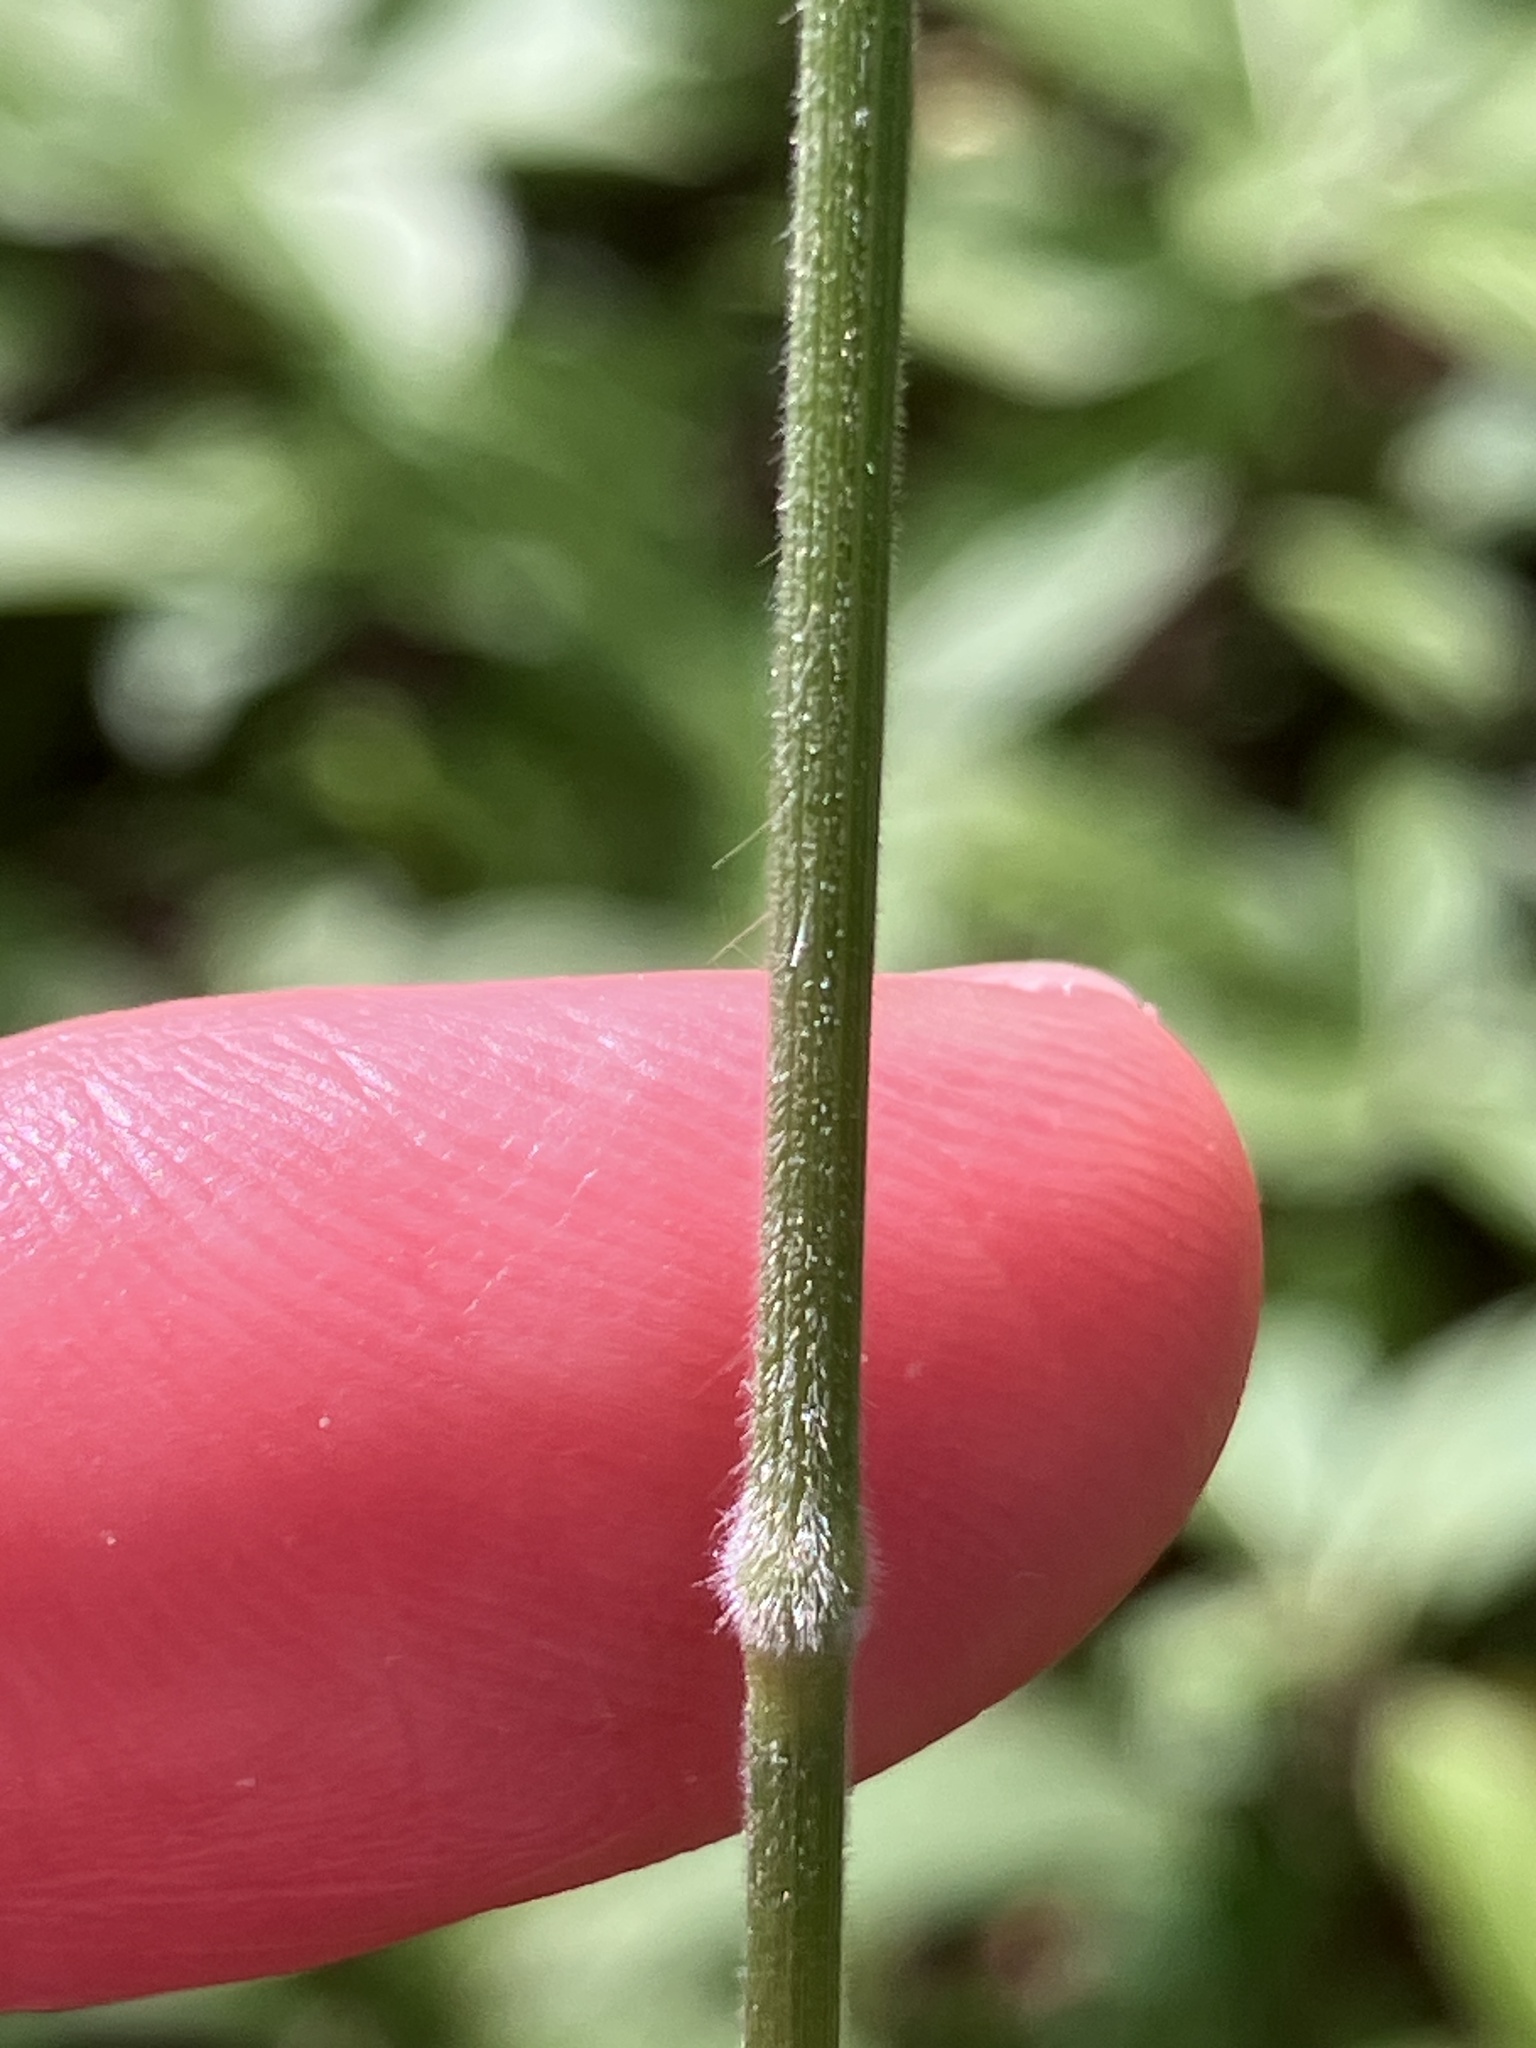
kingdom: Plantae
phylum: Tracheophyta
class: Liliopsida
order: Poales
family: Poaceae
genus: Bromus
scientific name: Bromus benekenii
